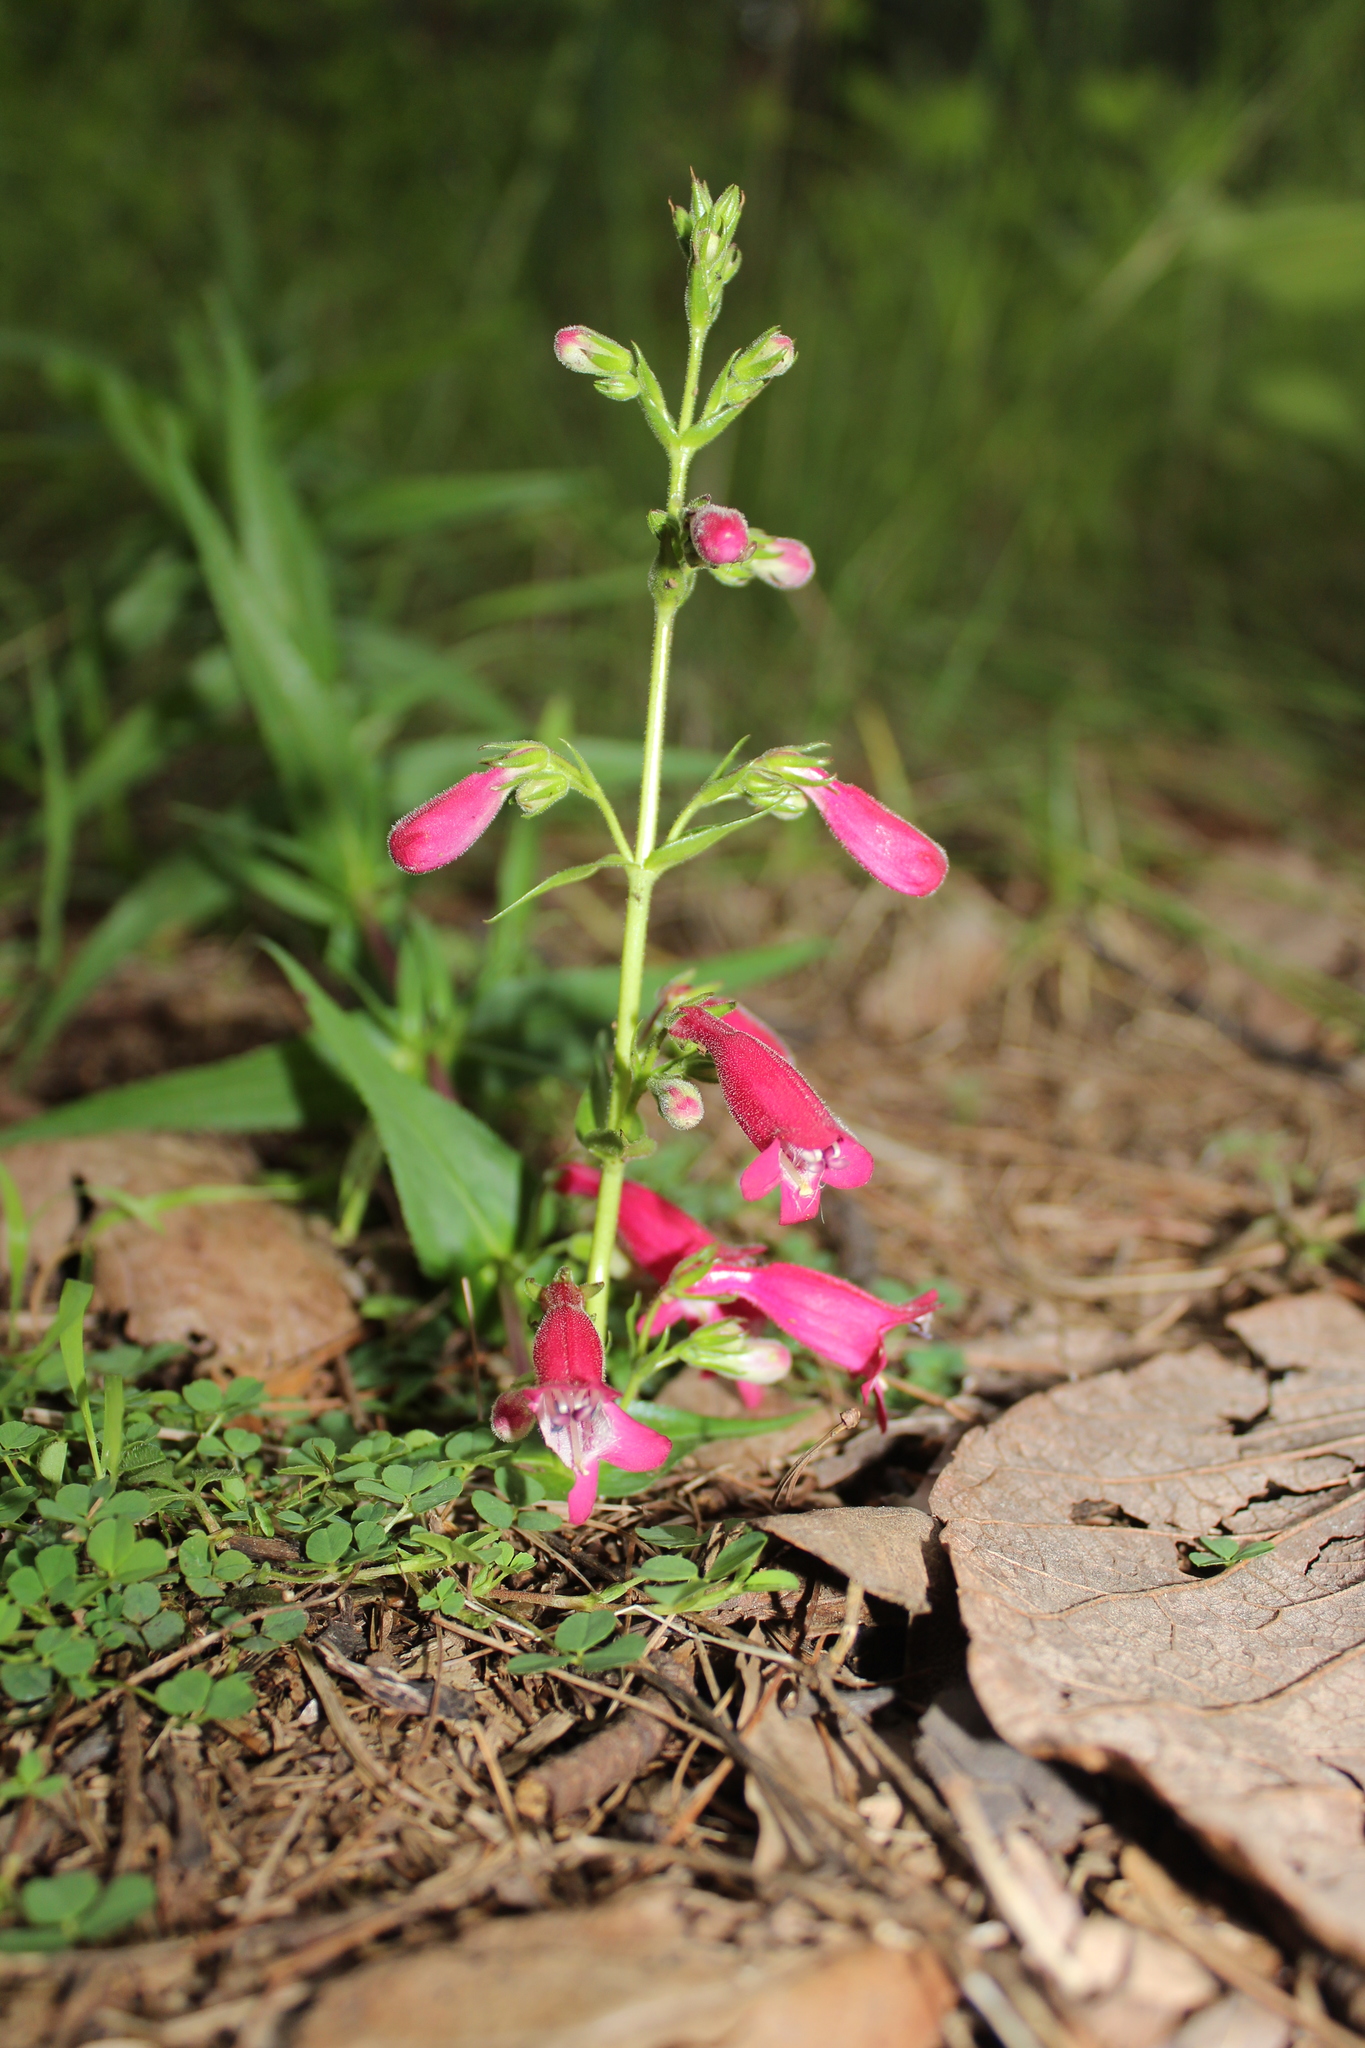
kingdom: Plantae
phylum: Tracheophyta
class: Magnoliopsida
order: Lamiales
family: Plantaginaceae
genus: Penstemon
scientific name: Penstemon roseus
